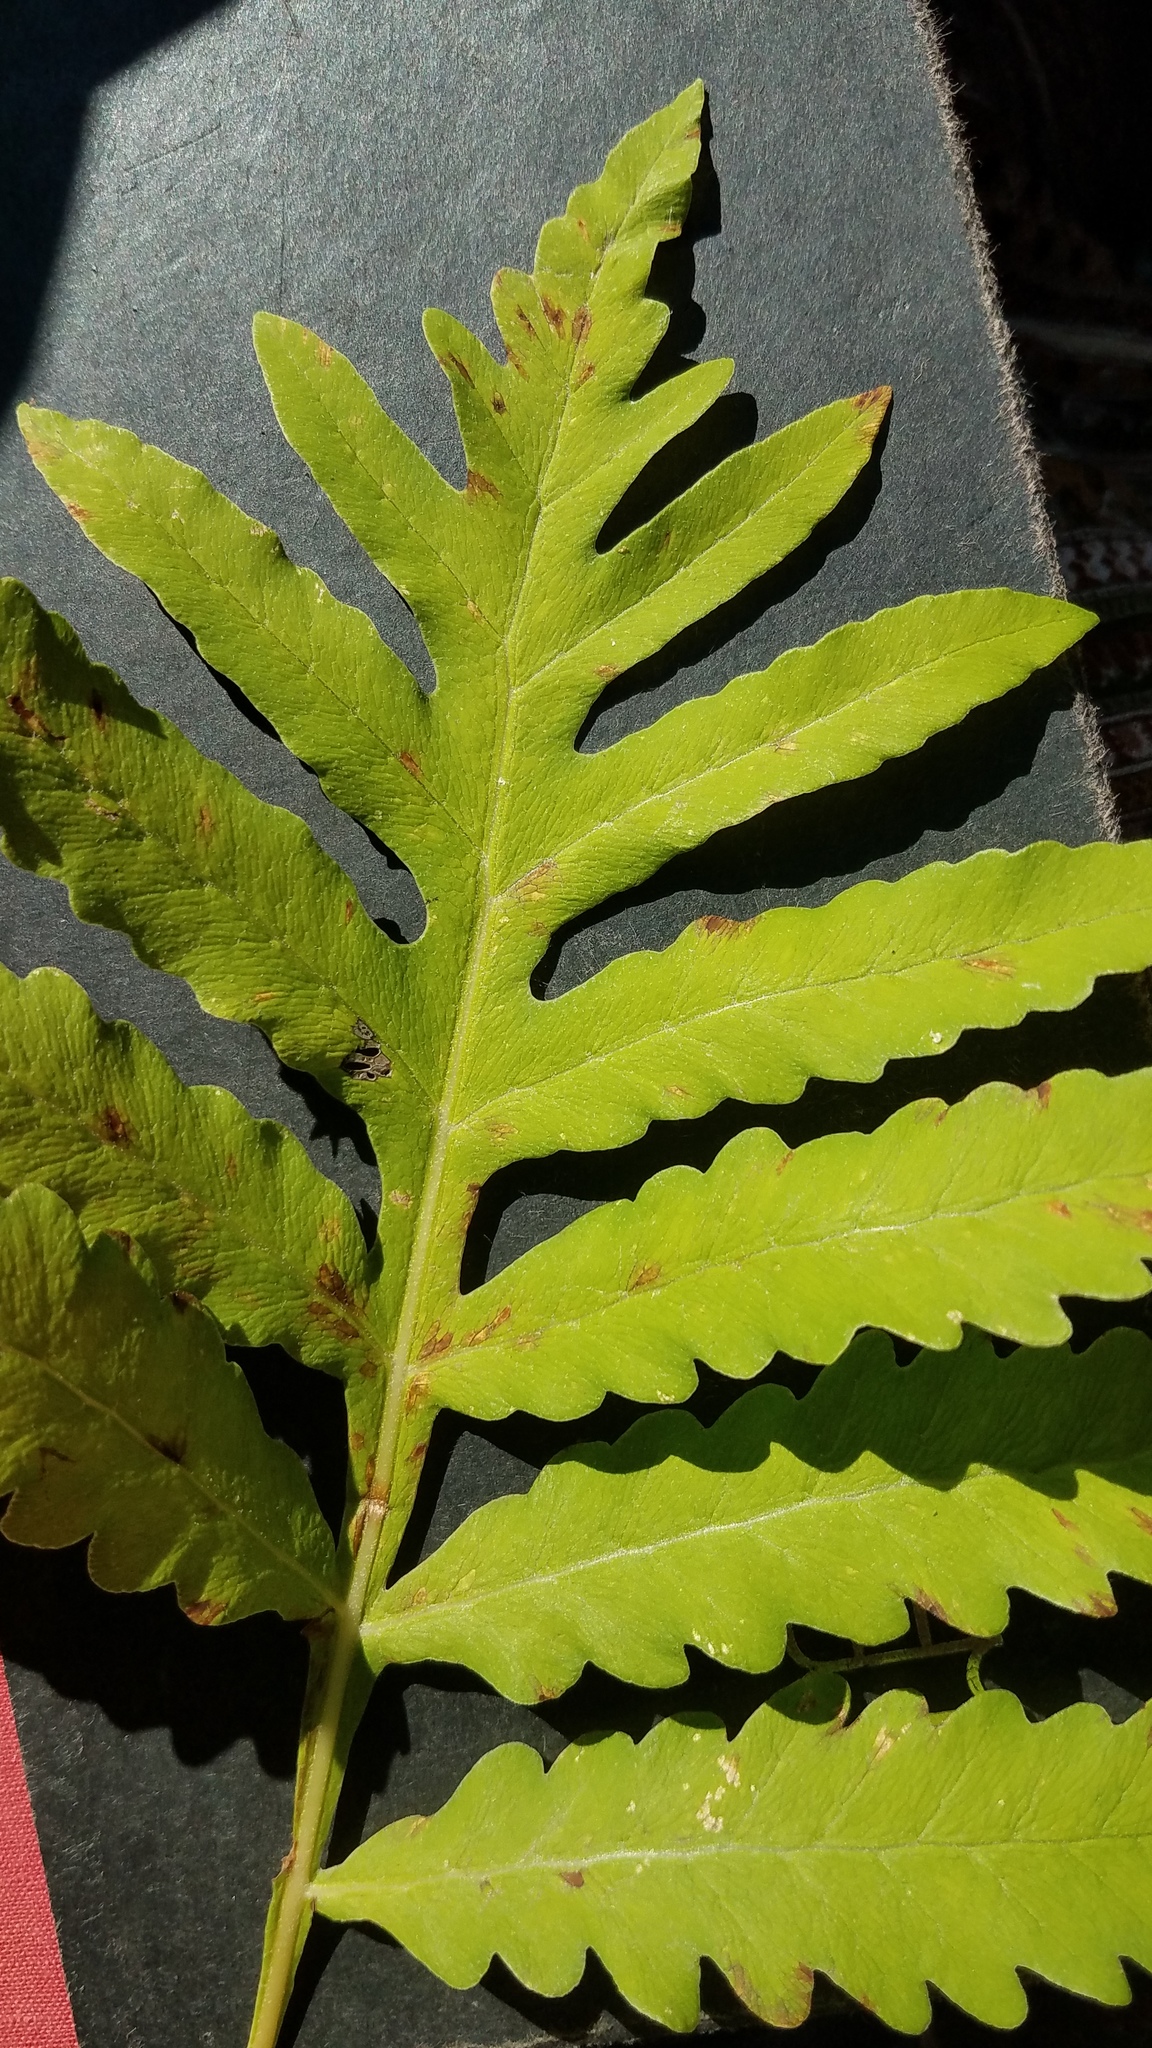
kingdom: Plantae
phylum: Tracheophyta
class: Polypodiopsida
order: Polypodiales
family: Onocleaceae
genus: Onoclea
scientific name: Onoclea sensibilis
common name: Sensitive fern
